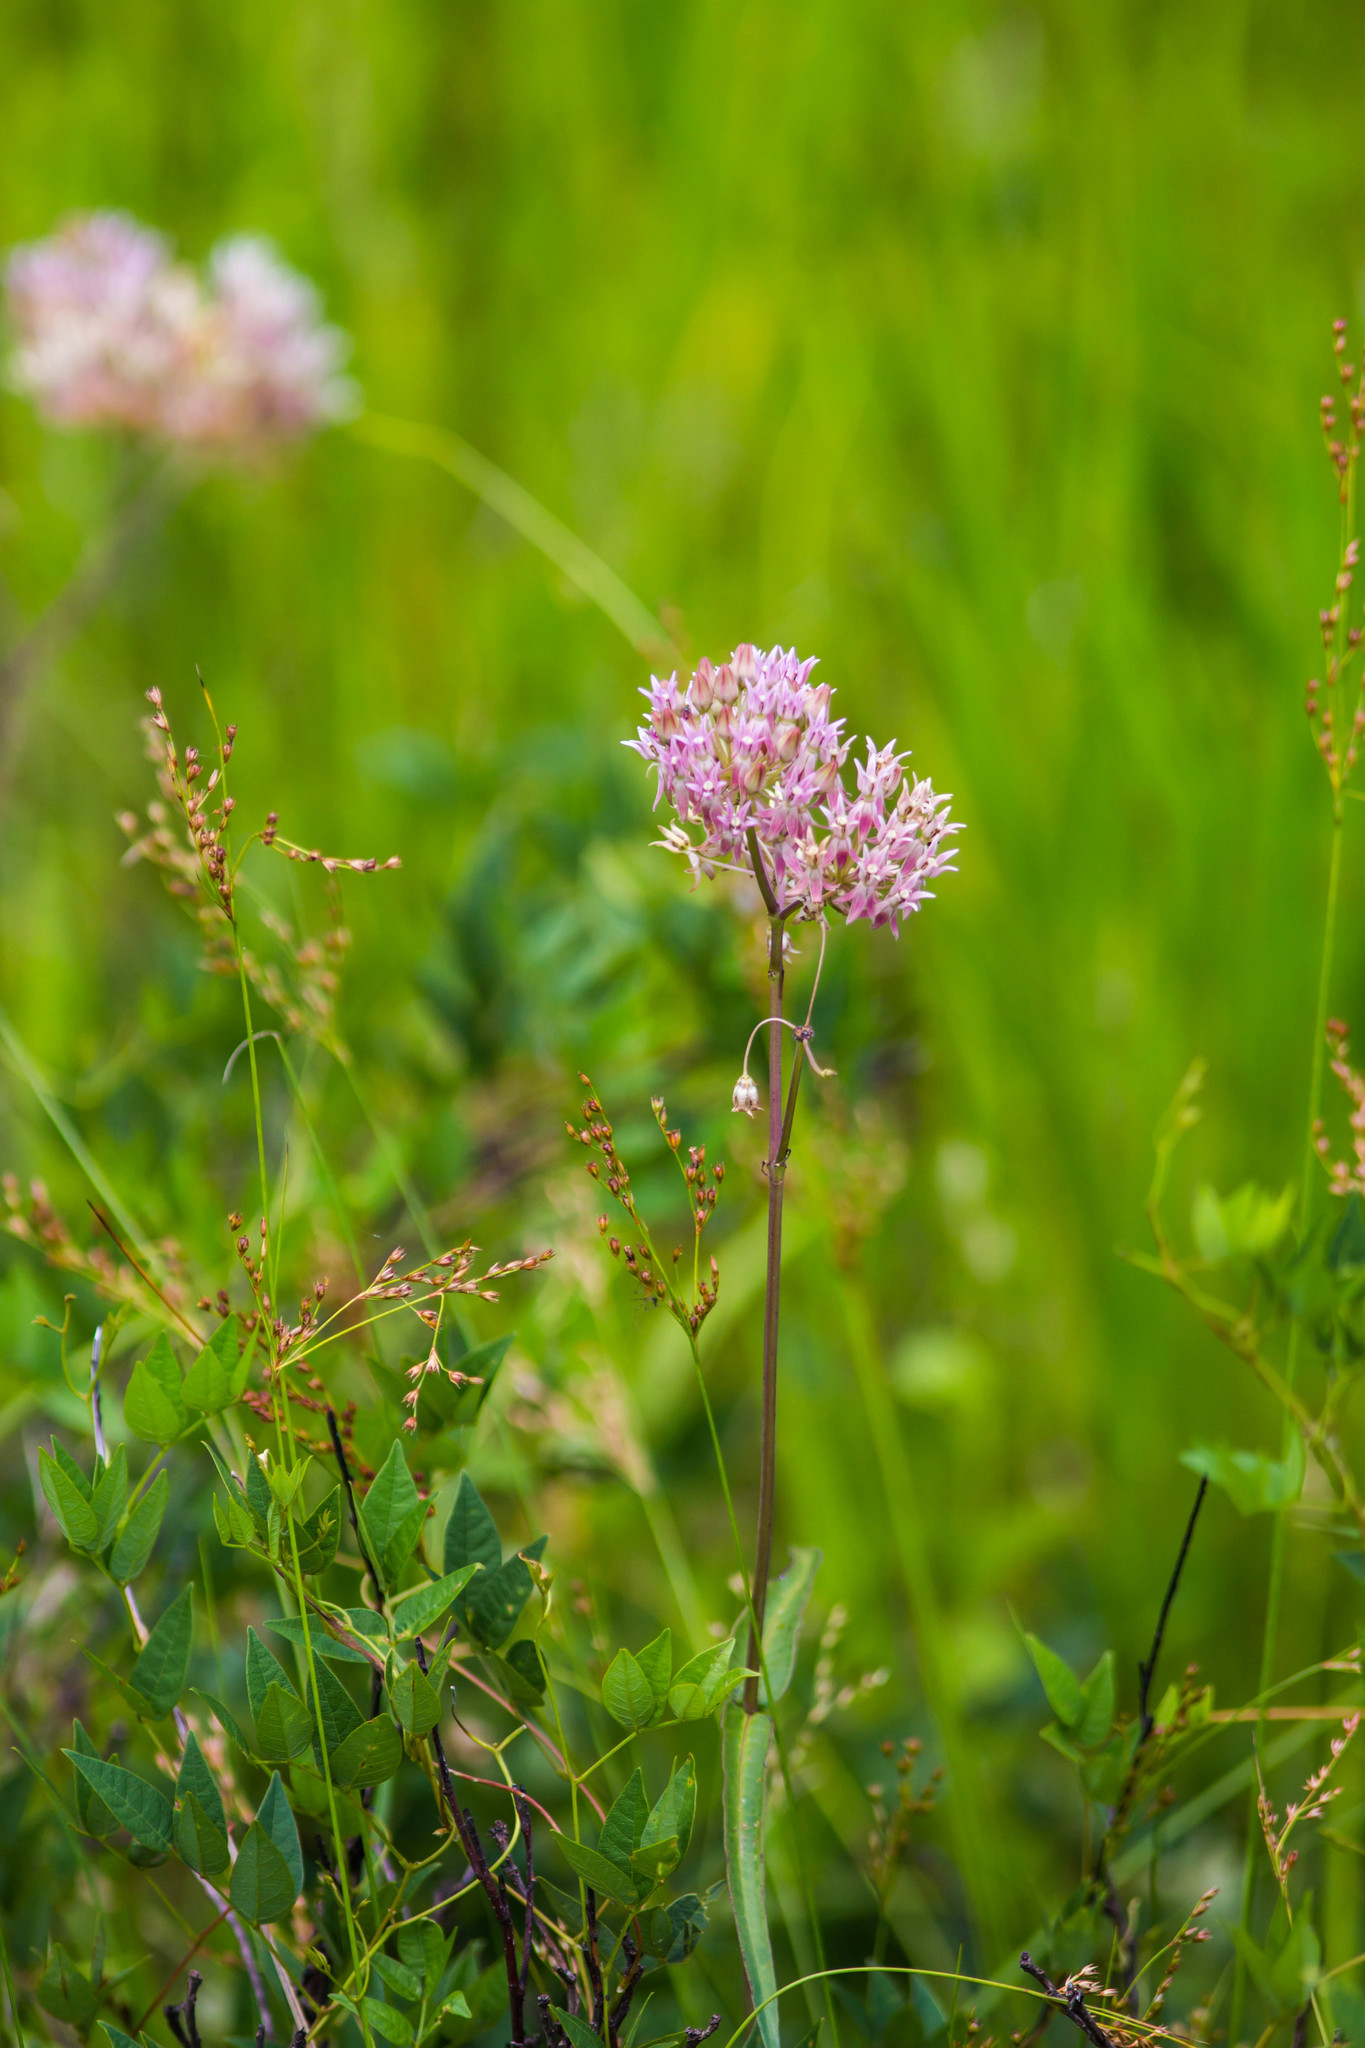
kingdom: Plantae
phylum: Tracheophyta
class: Magnoliopsida
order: Gentianales
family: Apocynaceae
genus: Asclepias
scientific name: Asclepias rubra
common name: Red milkweed
